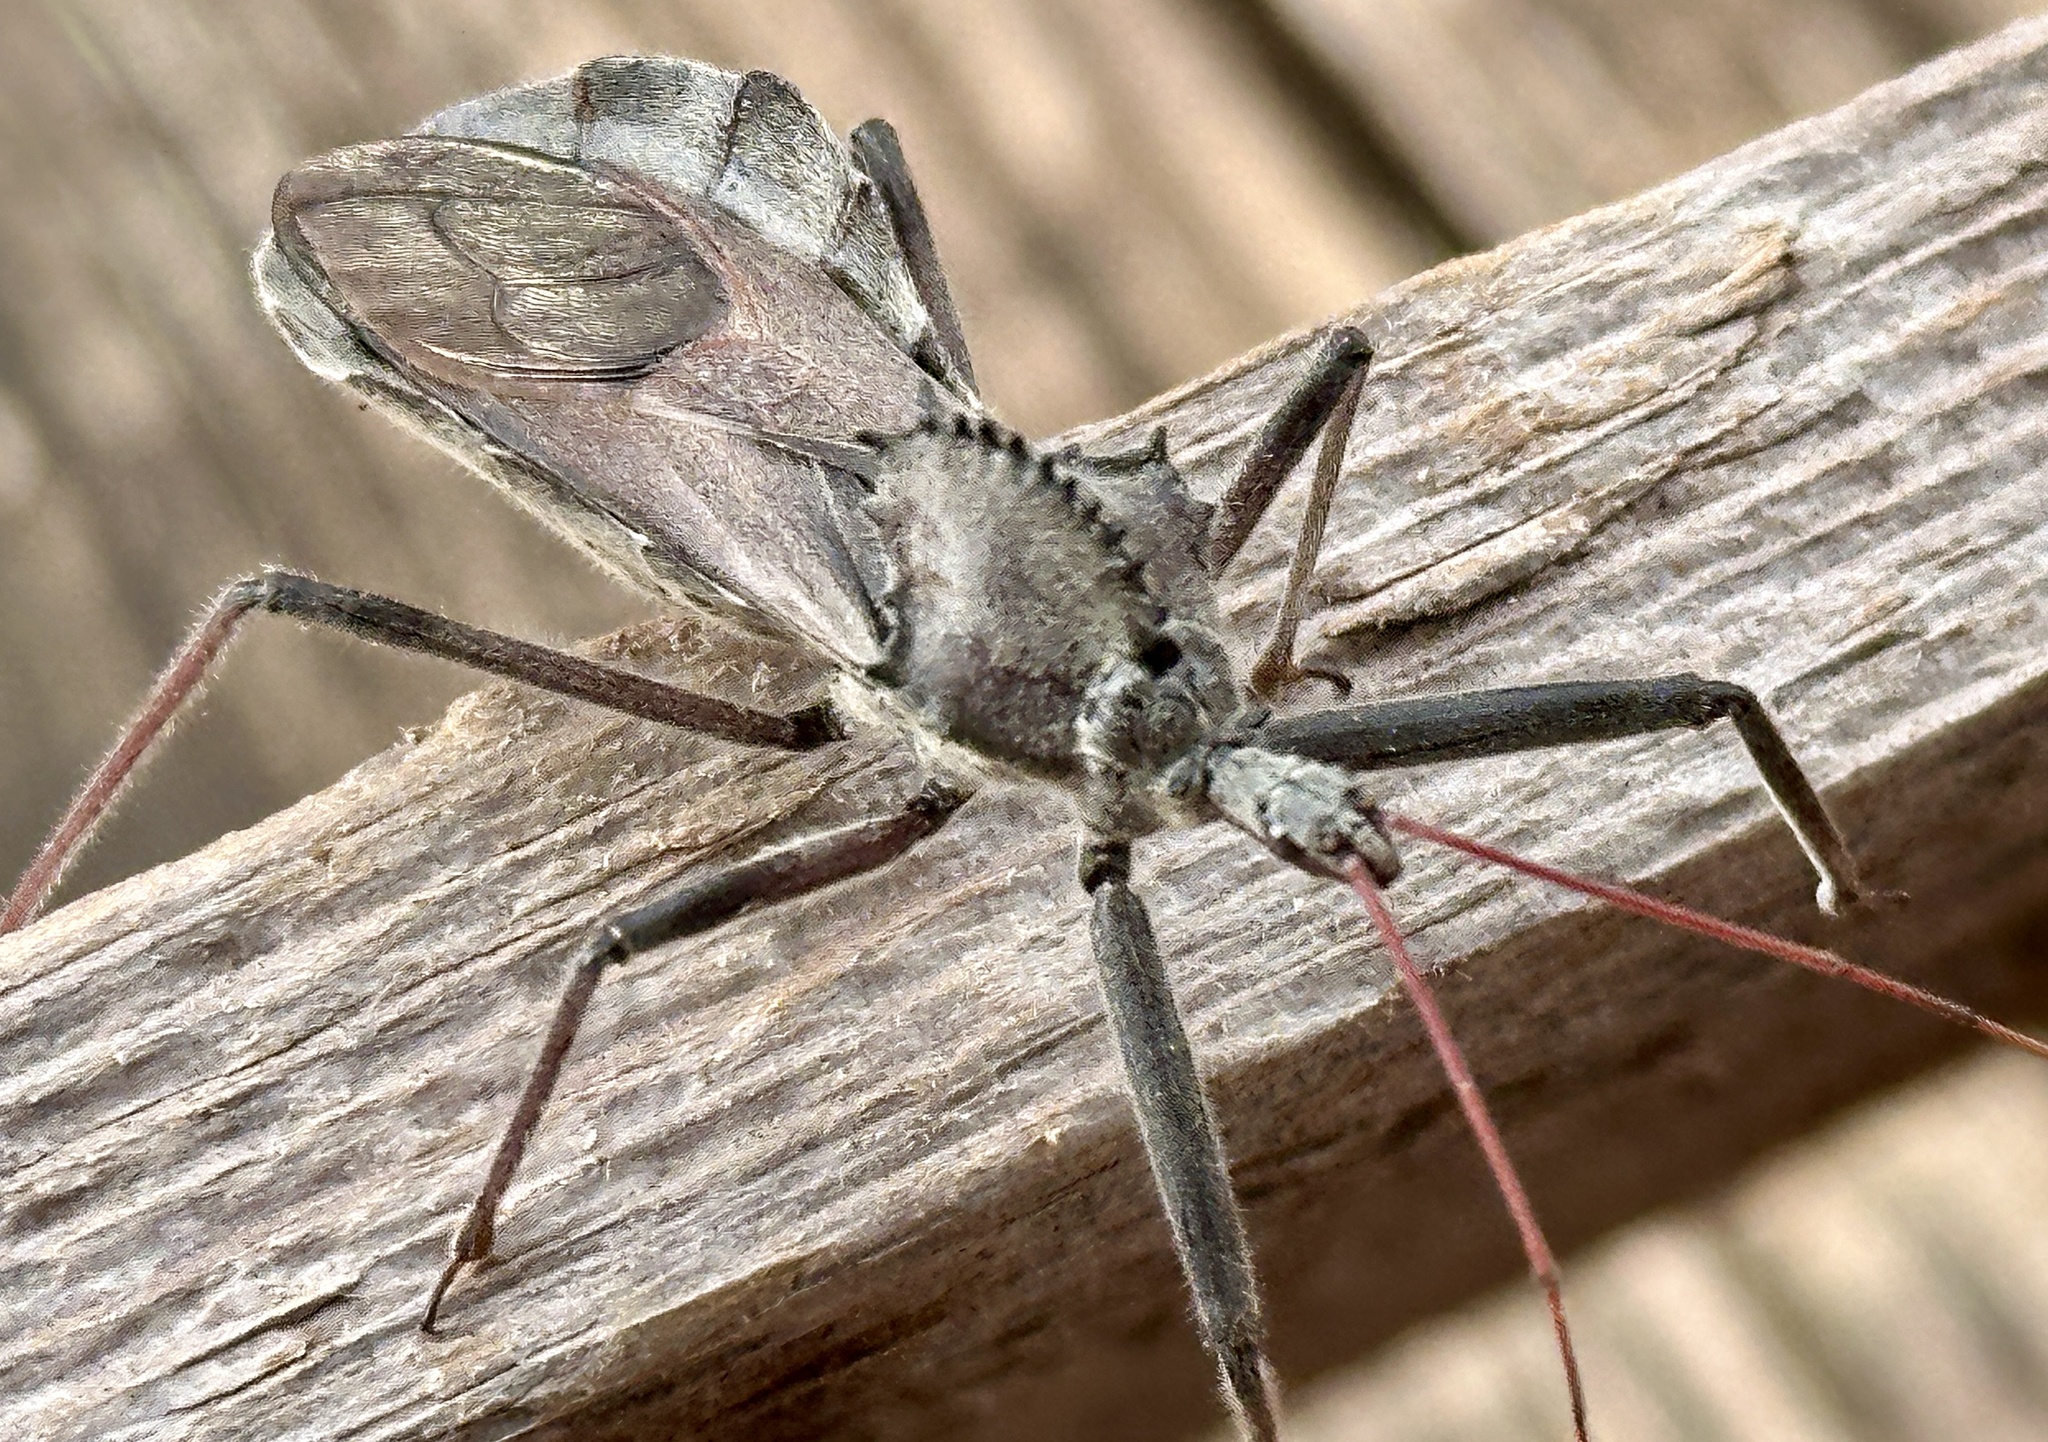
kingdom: Animalia
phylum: Arthropoda
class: Insecta
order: Hemiptera
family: Reduviidae
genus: Arilus
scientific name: Arilus cristatus
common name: North american wheel bug
